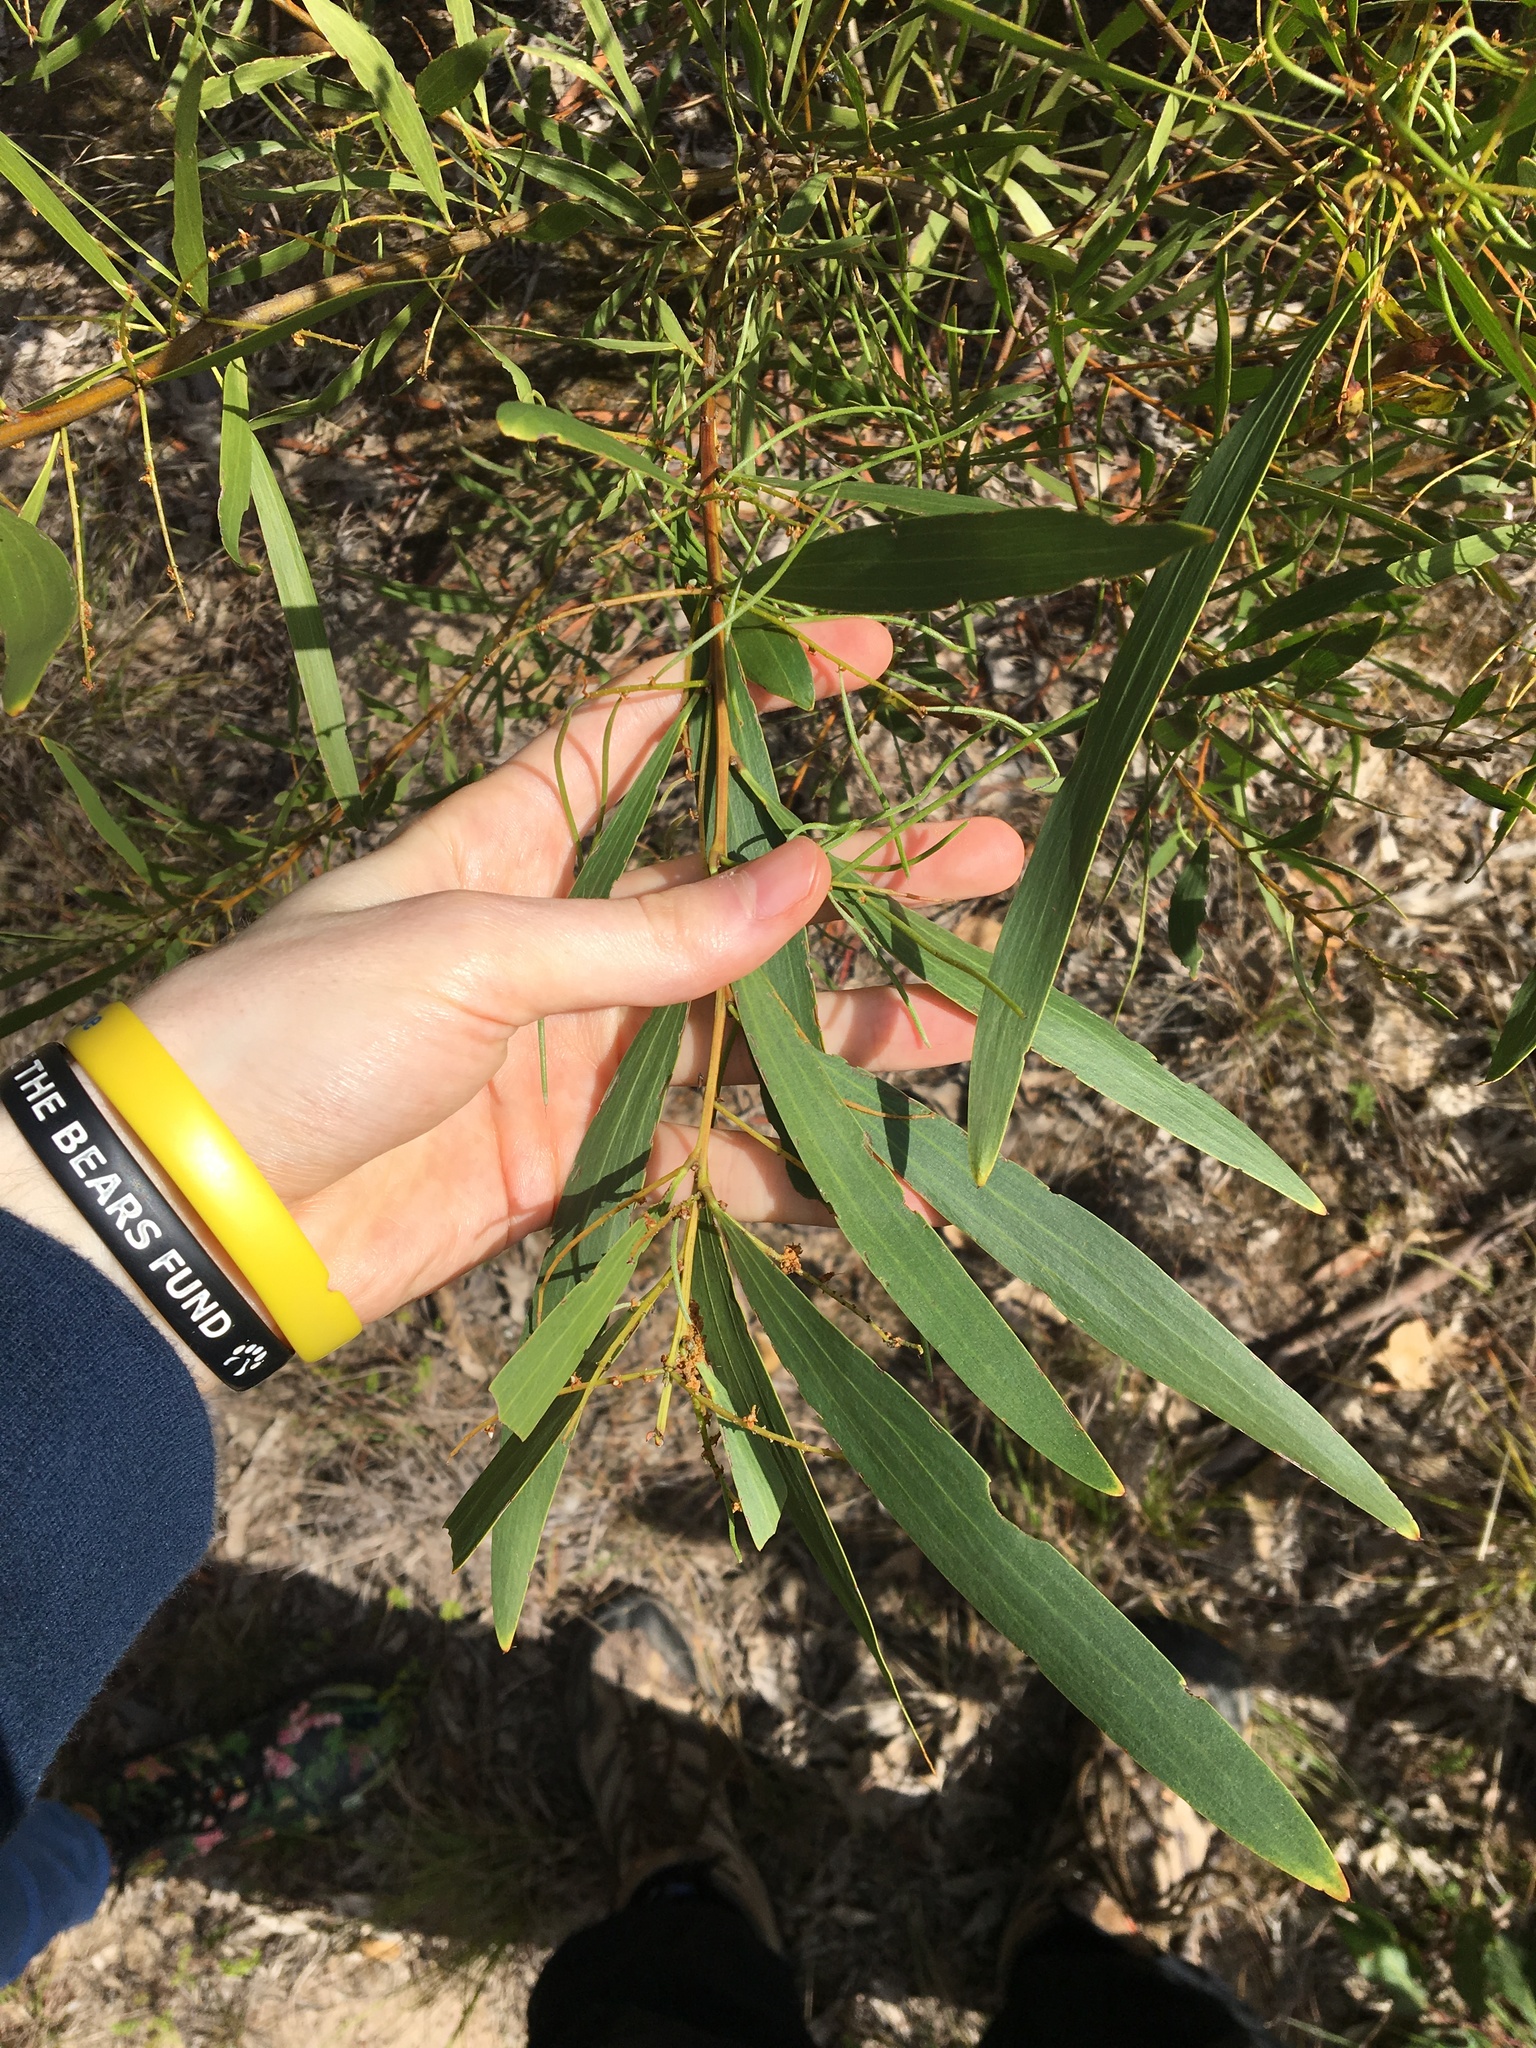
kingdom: Plantae
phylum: Tracheophyta
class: Magnoliopsida
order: Fabales
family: Fabaceae
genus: Acacia
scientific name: Acacia longifolia
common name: Sydney golden wattle
